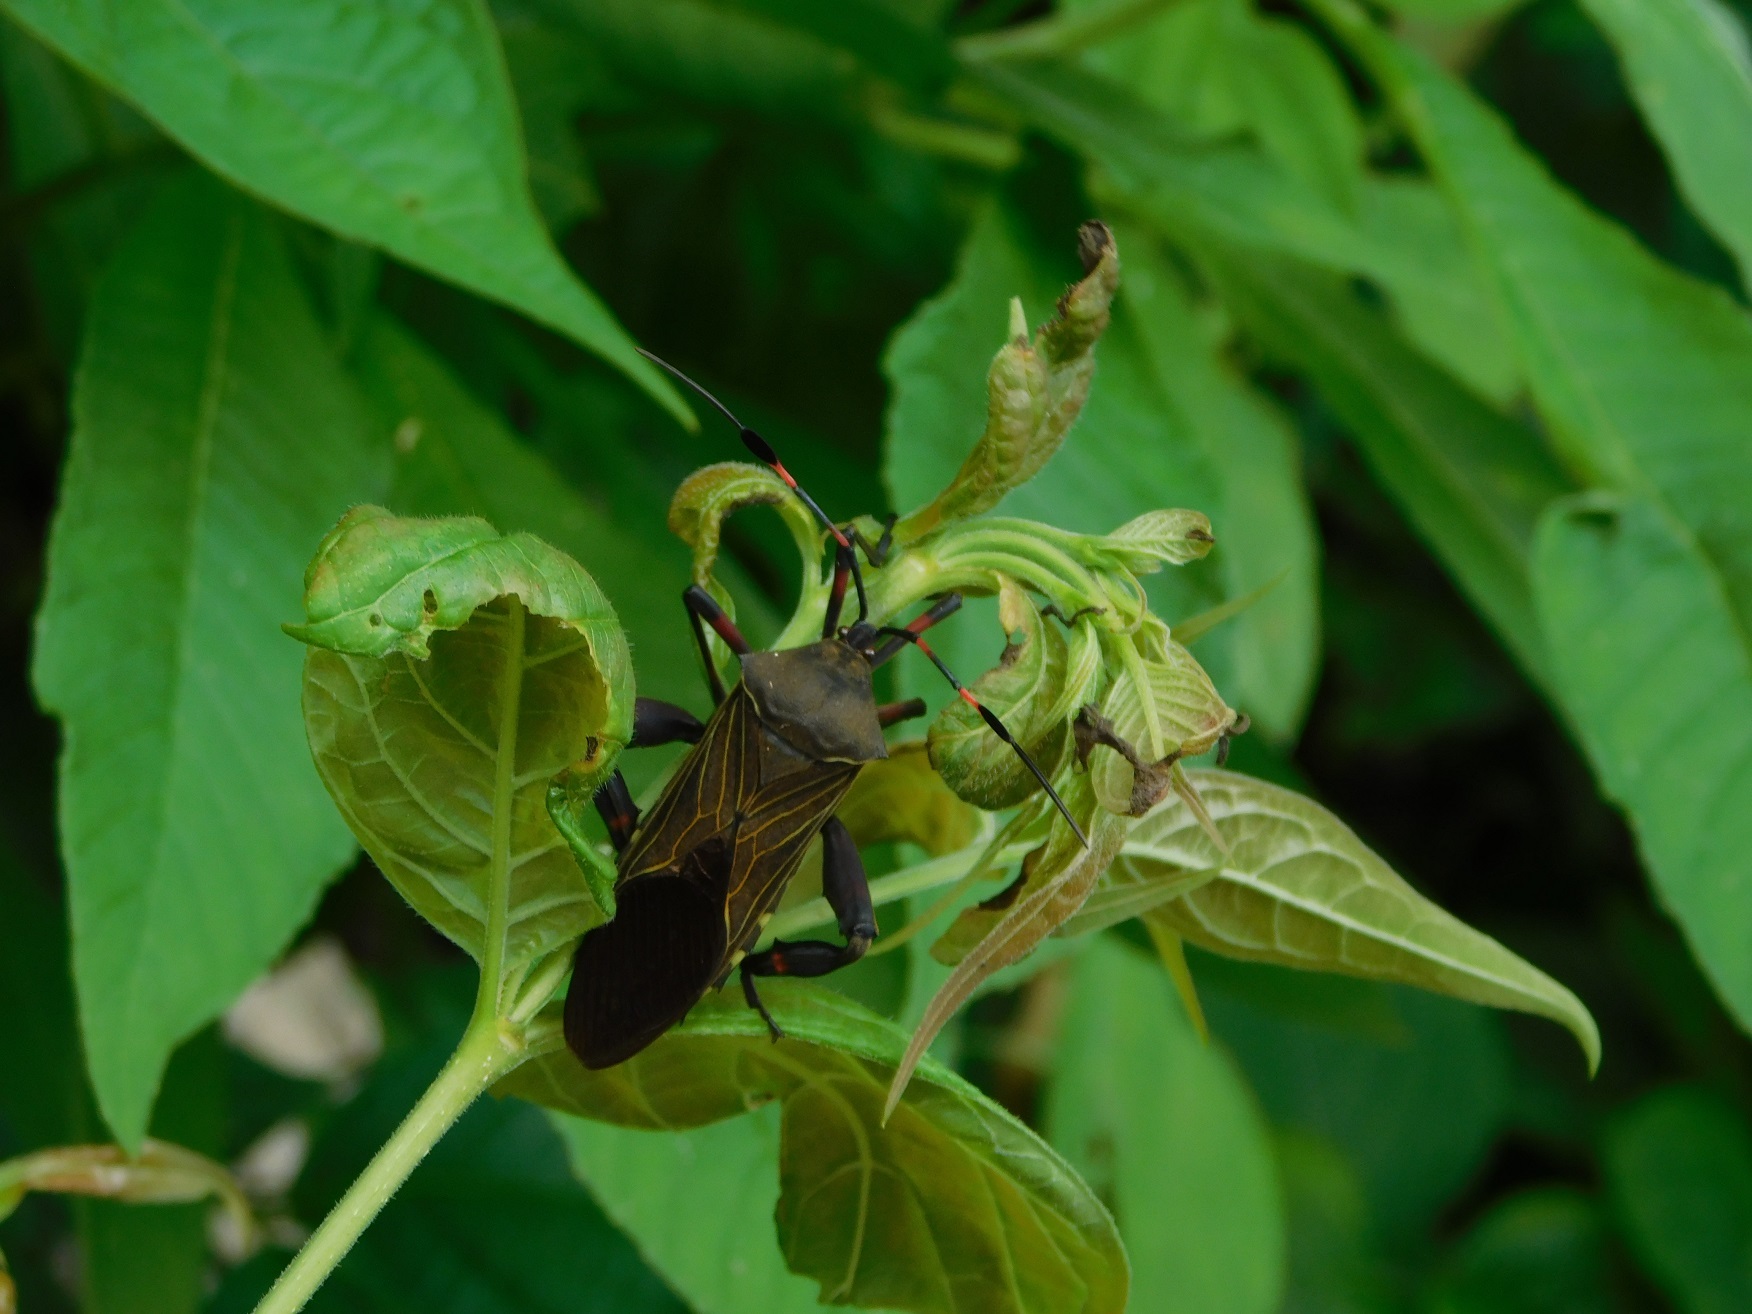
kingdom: Animalia
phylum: Arthropoda
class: Insecta
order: Hemiptera
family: Coreidae
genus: Thasus
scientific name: Thasus acutangulus
